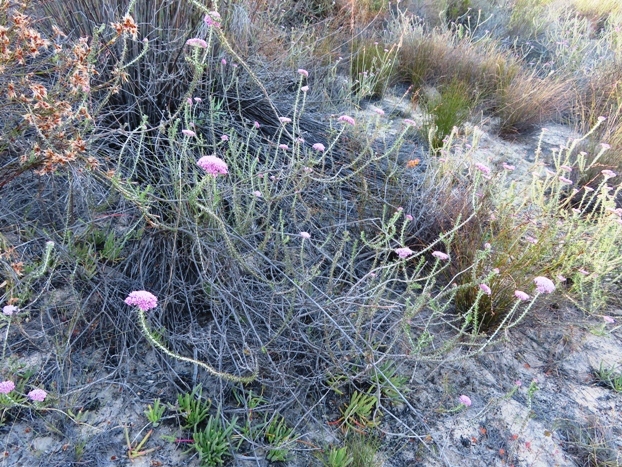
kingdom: Plantae
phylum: Tracheophyta
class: Magnoliopsida
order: Asterales
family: Asteraceae
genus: Metalasia
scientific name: Metalasia fastigiata
